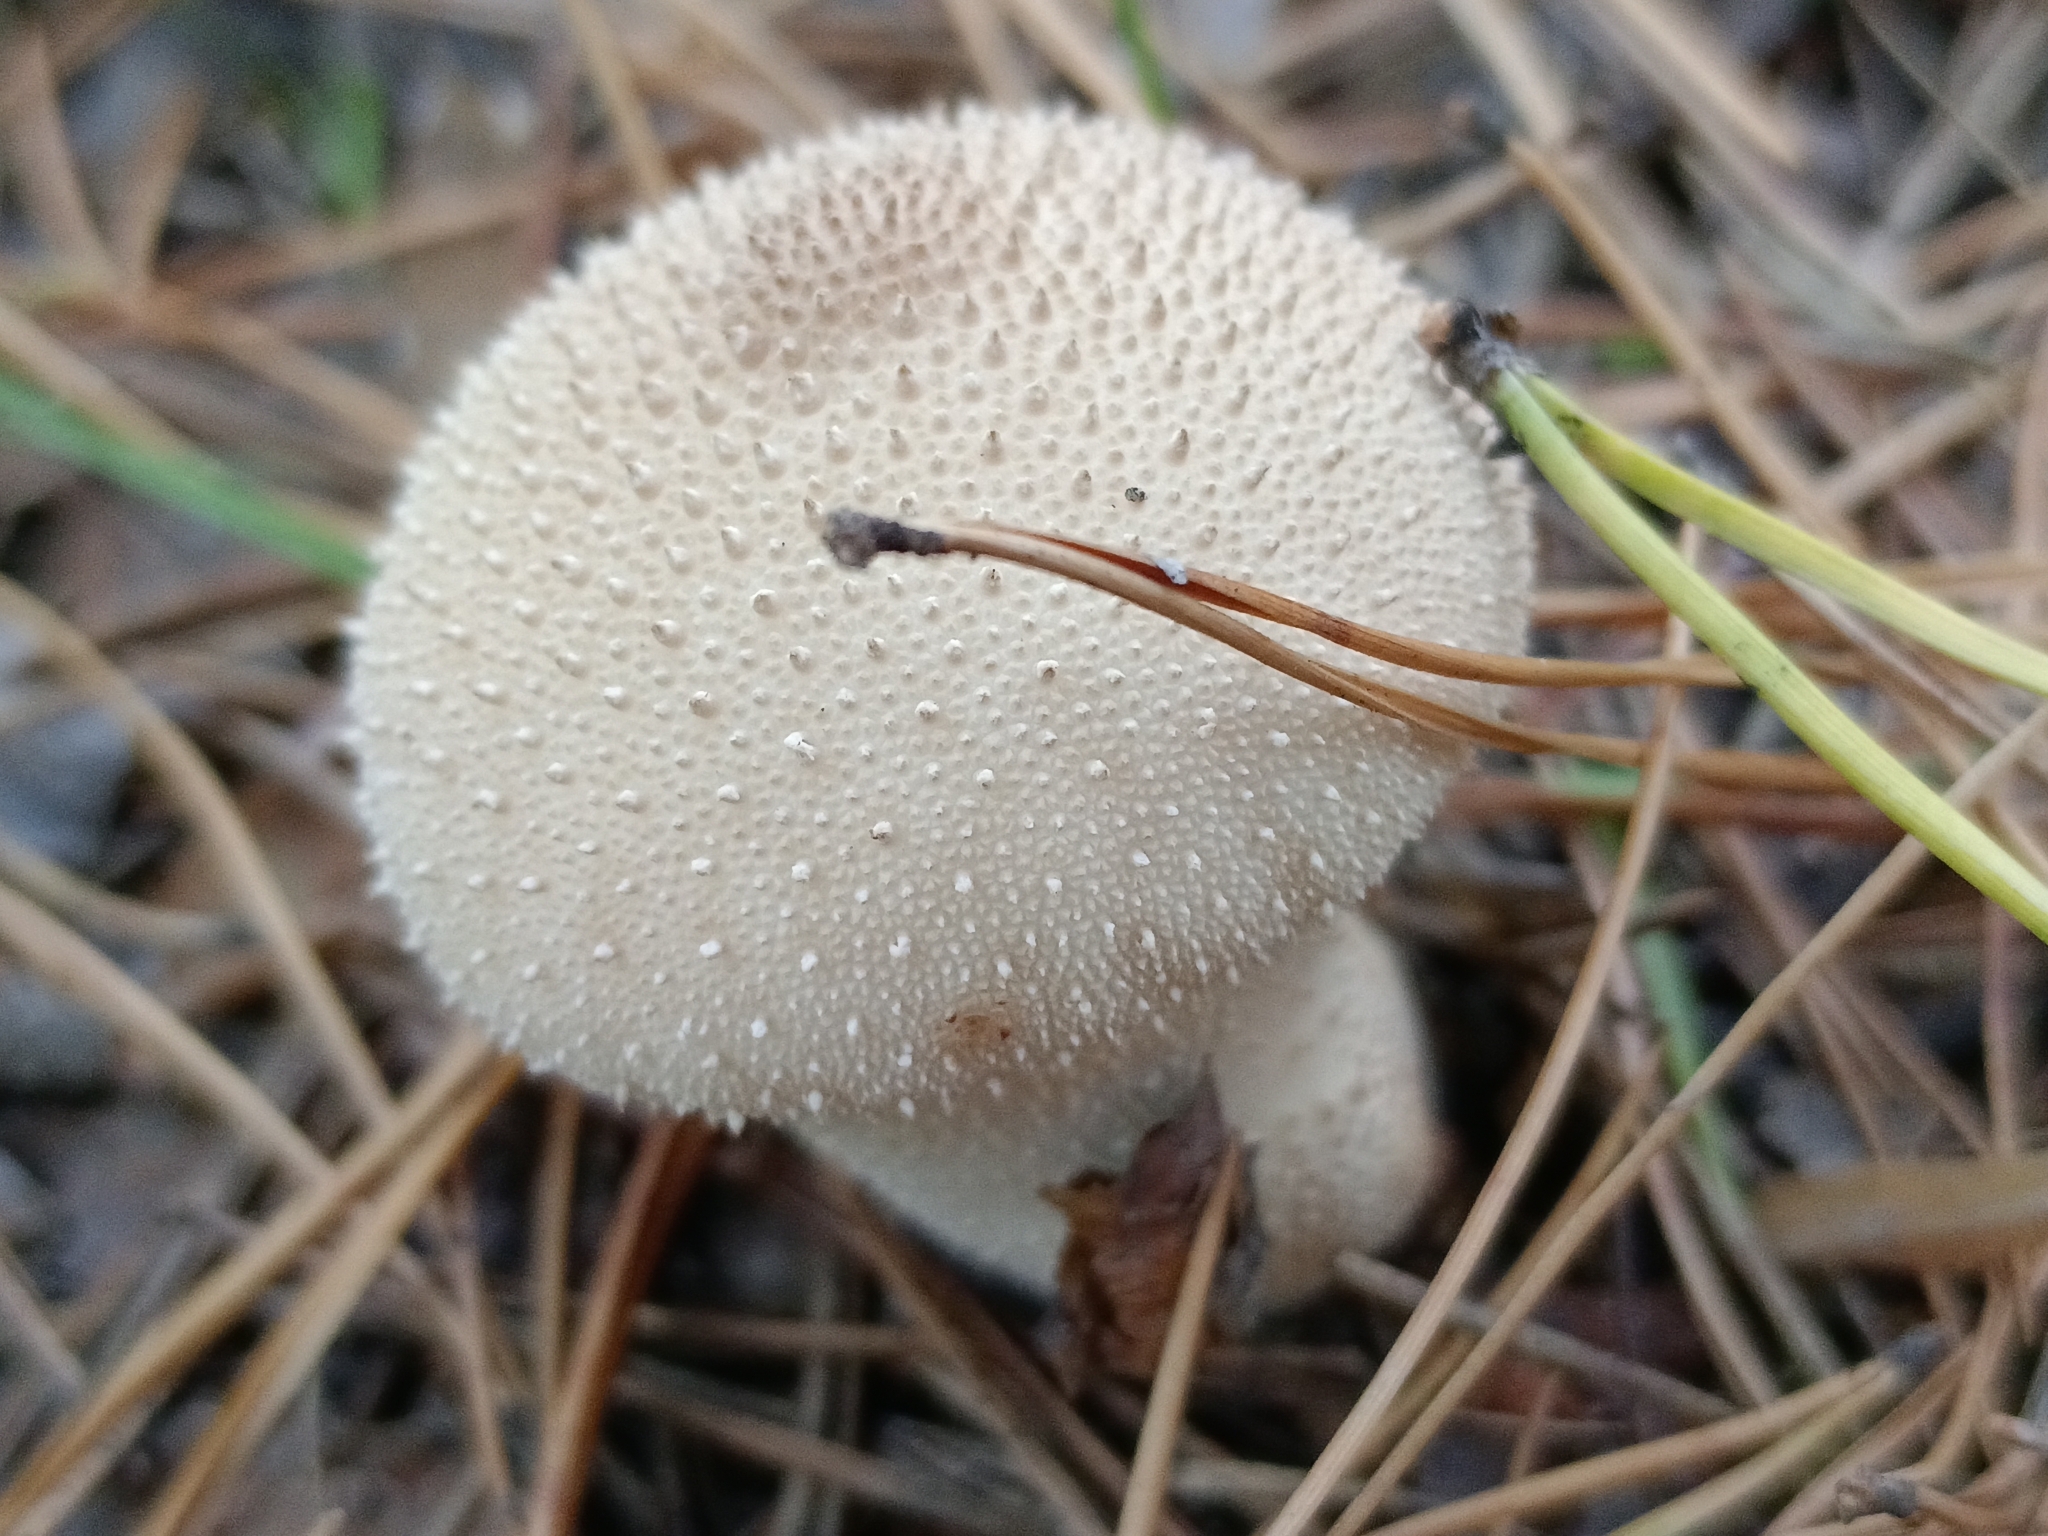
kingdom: Fungi
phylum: Basidiomycota
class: Agaricomycetes
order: Agaricales
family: Lycoperdaceae
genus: Lycoperdon
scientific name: Lycoperdon perlatum
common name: Common puffball
